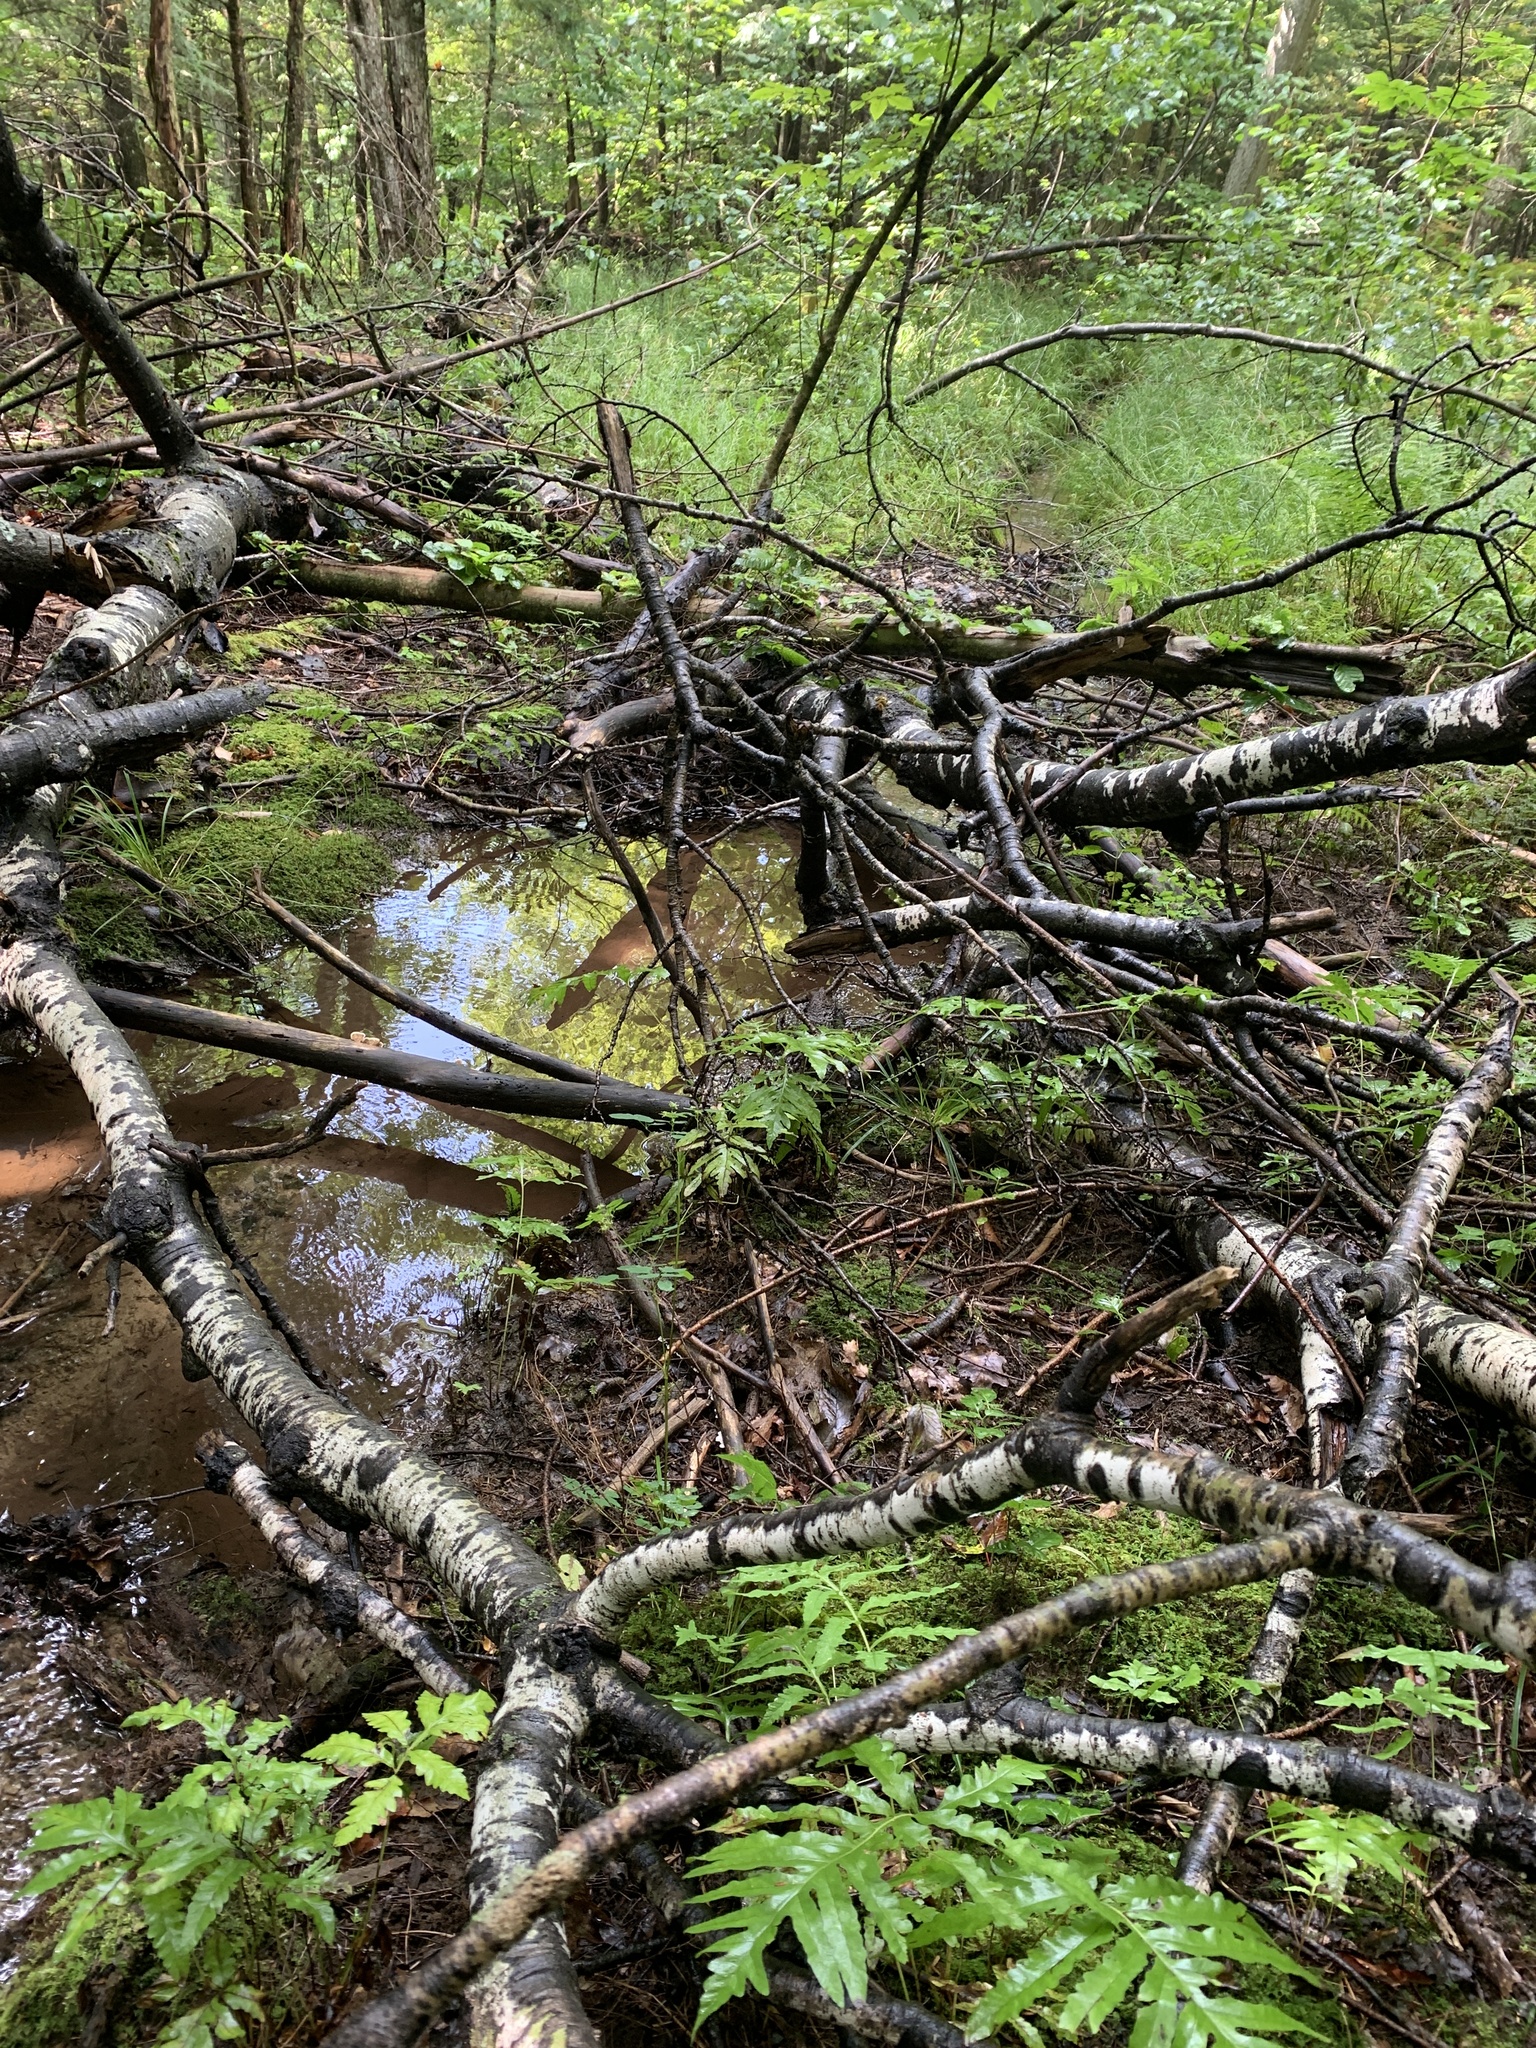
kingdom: Plantae
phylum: Tracheophyta
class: Polypodiopsida
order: Polypodiales
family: Onocleaceae
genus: Onoclea
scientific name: Onoclea sensibilis
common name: Sensitive fern
